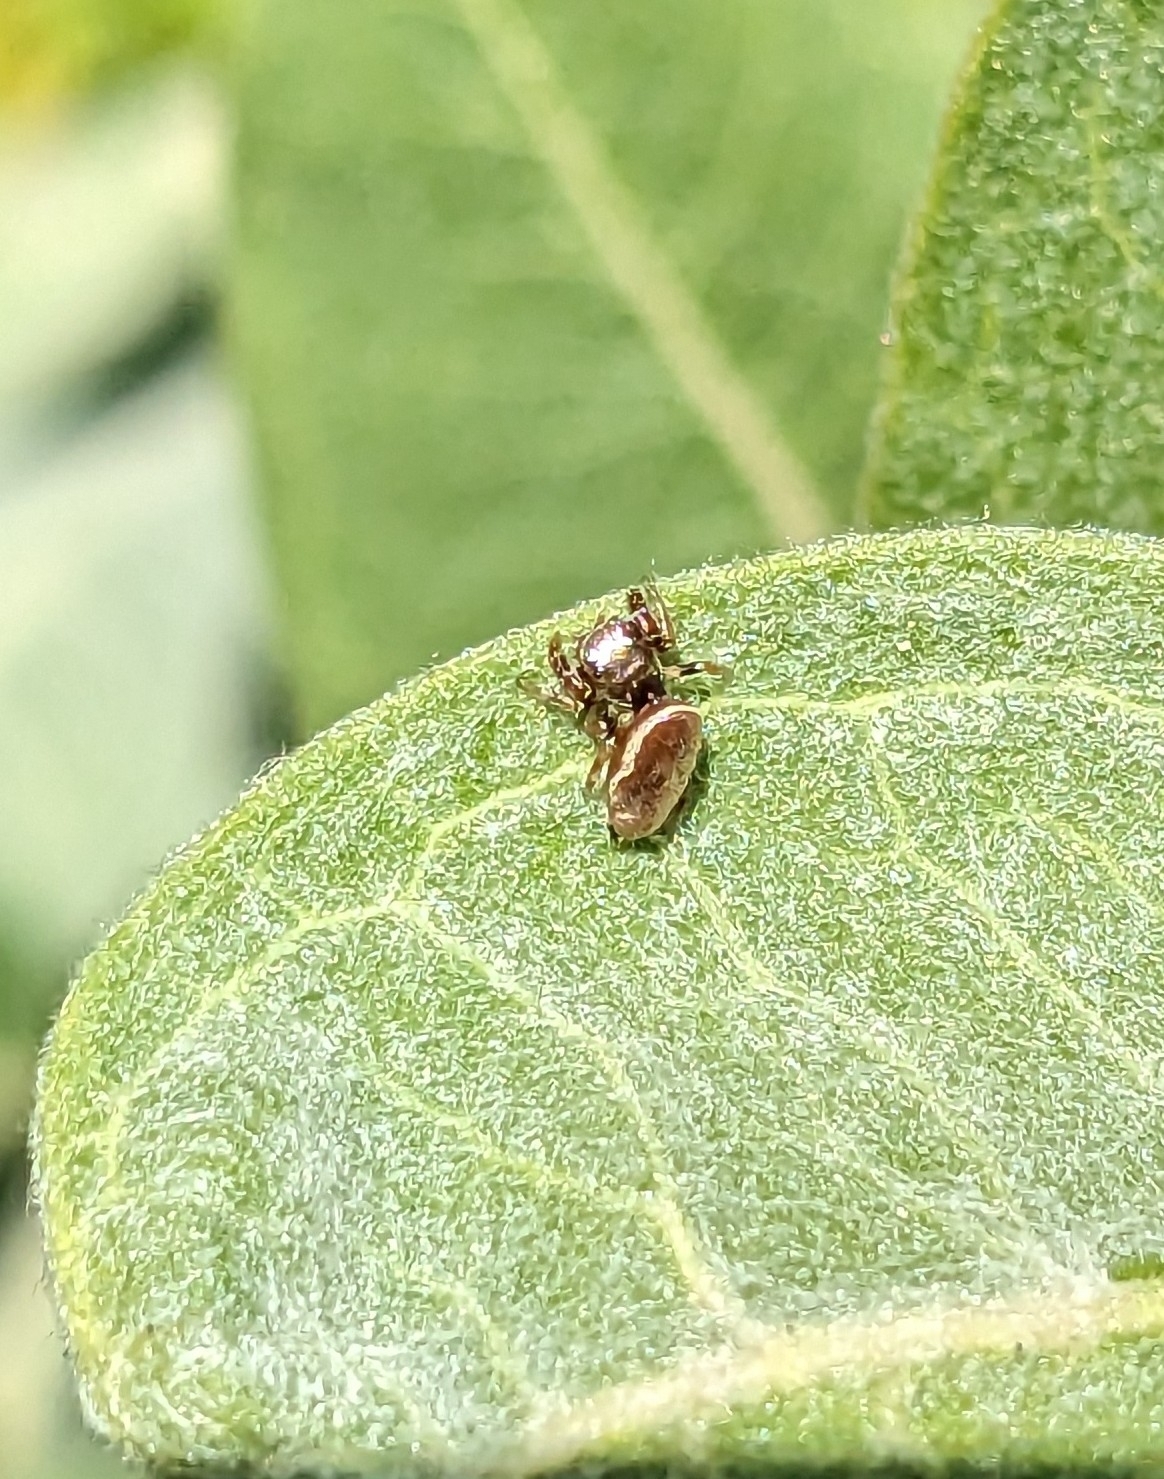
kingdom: Animalia
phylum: Arthropoda
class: Arachnida
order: Araneae
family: Salticidae
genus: Sassacus
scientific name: Sassacus vitis
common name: Jumping spiders
